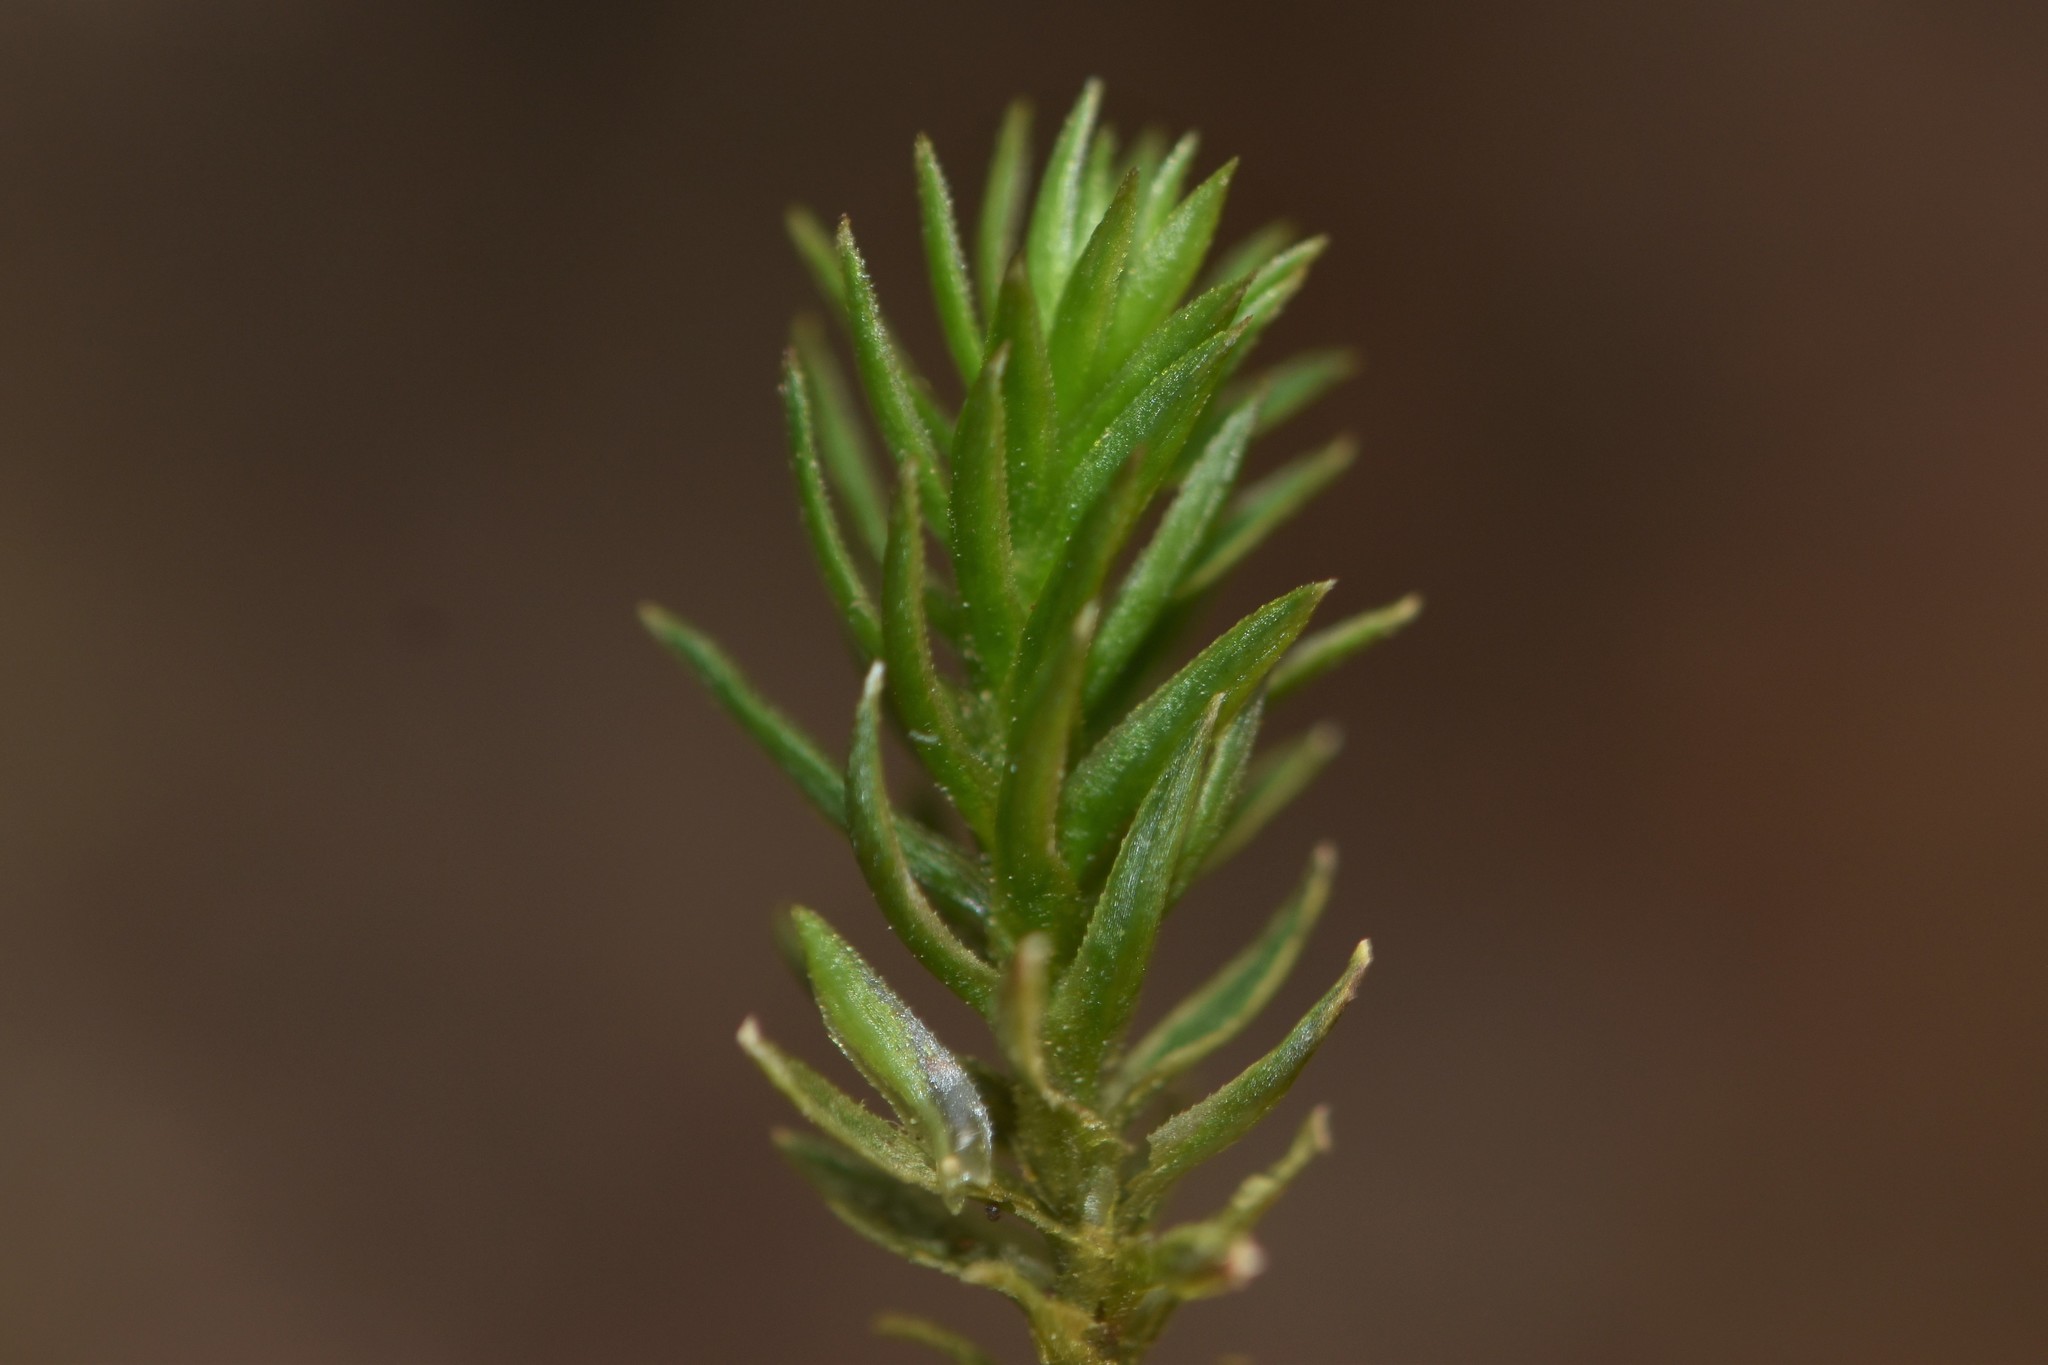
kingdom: Plantae
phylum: Bryophyta
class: Polytrichopsida
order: Polytrichales
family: Polytrichaceae
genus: Pogonatum
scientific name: Pogonatum contortum
